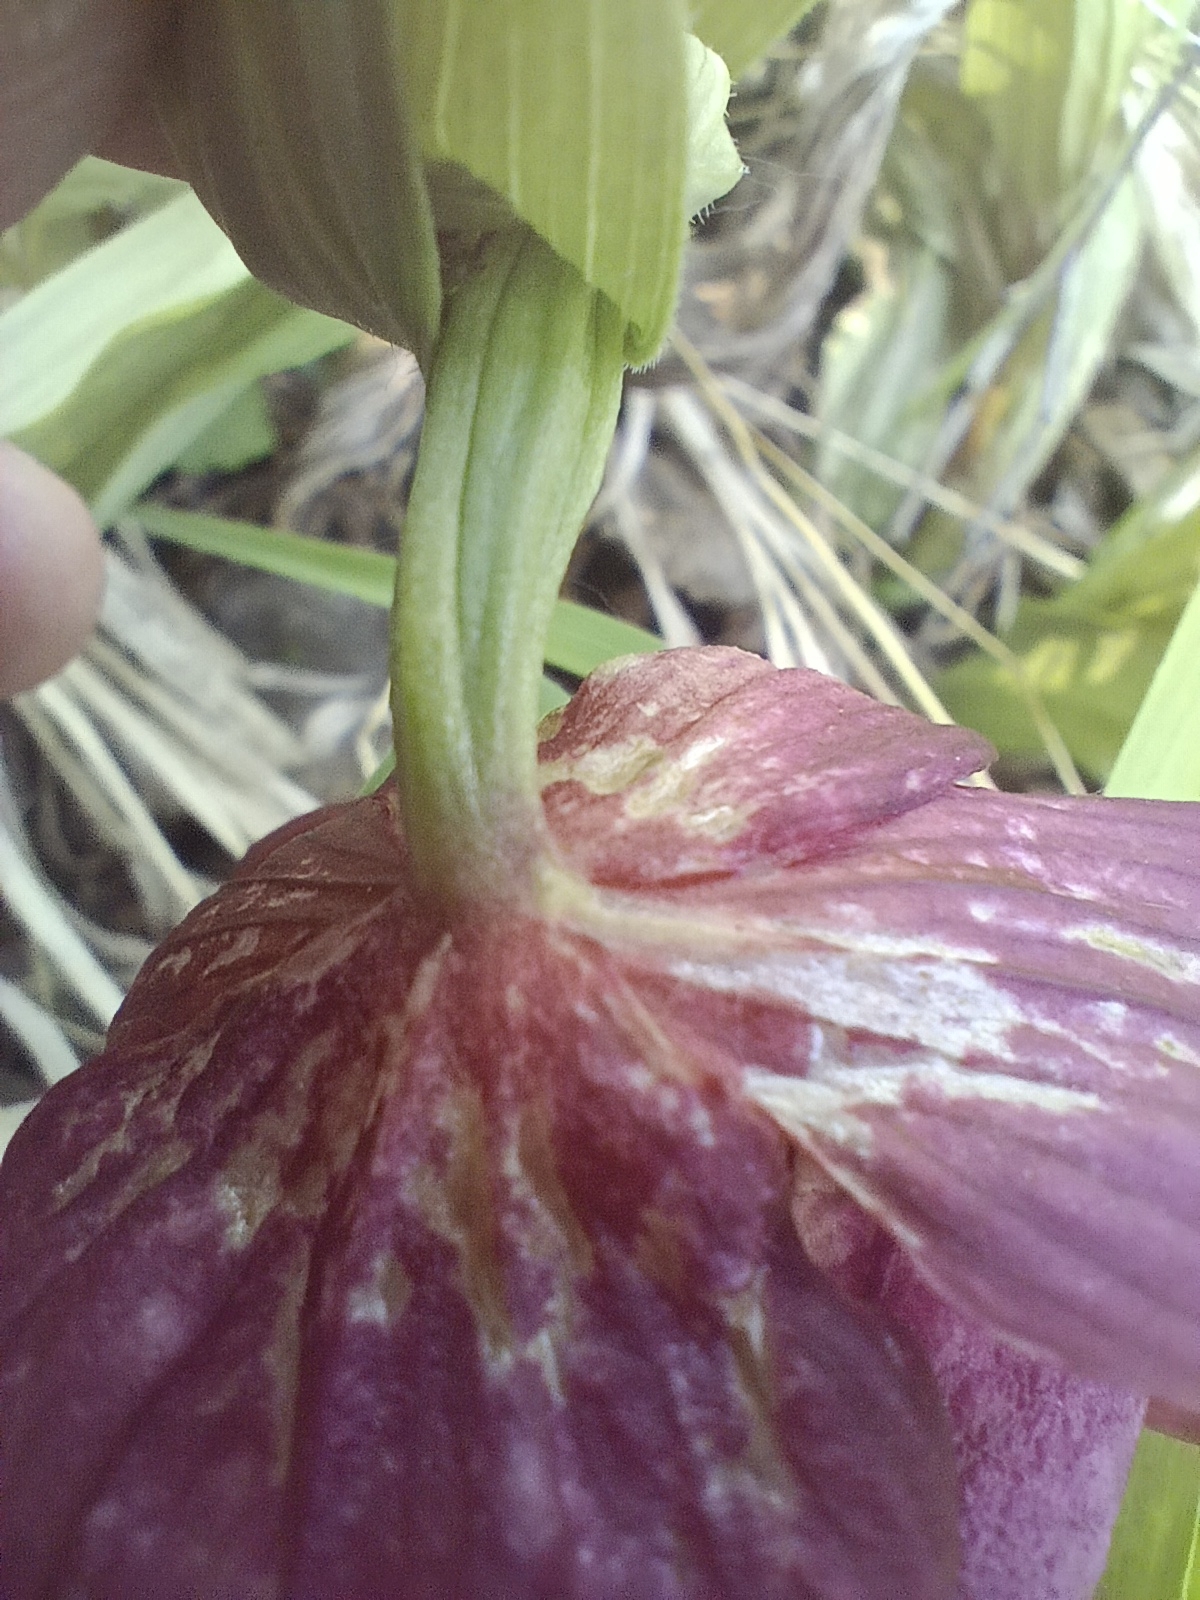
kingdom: Plantae
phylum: Tracheophyta
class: Liliopsida
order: Asparagales
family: Orchidaceae
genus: Cypripedium
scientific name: Cypripedium macranthos
